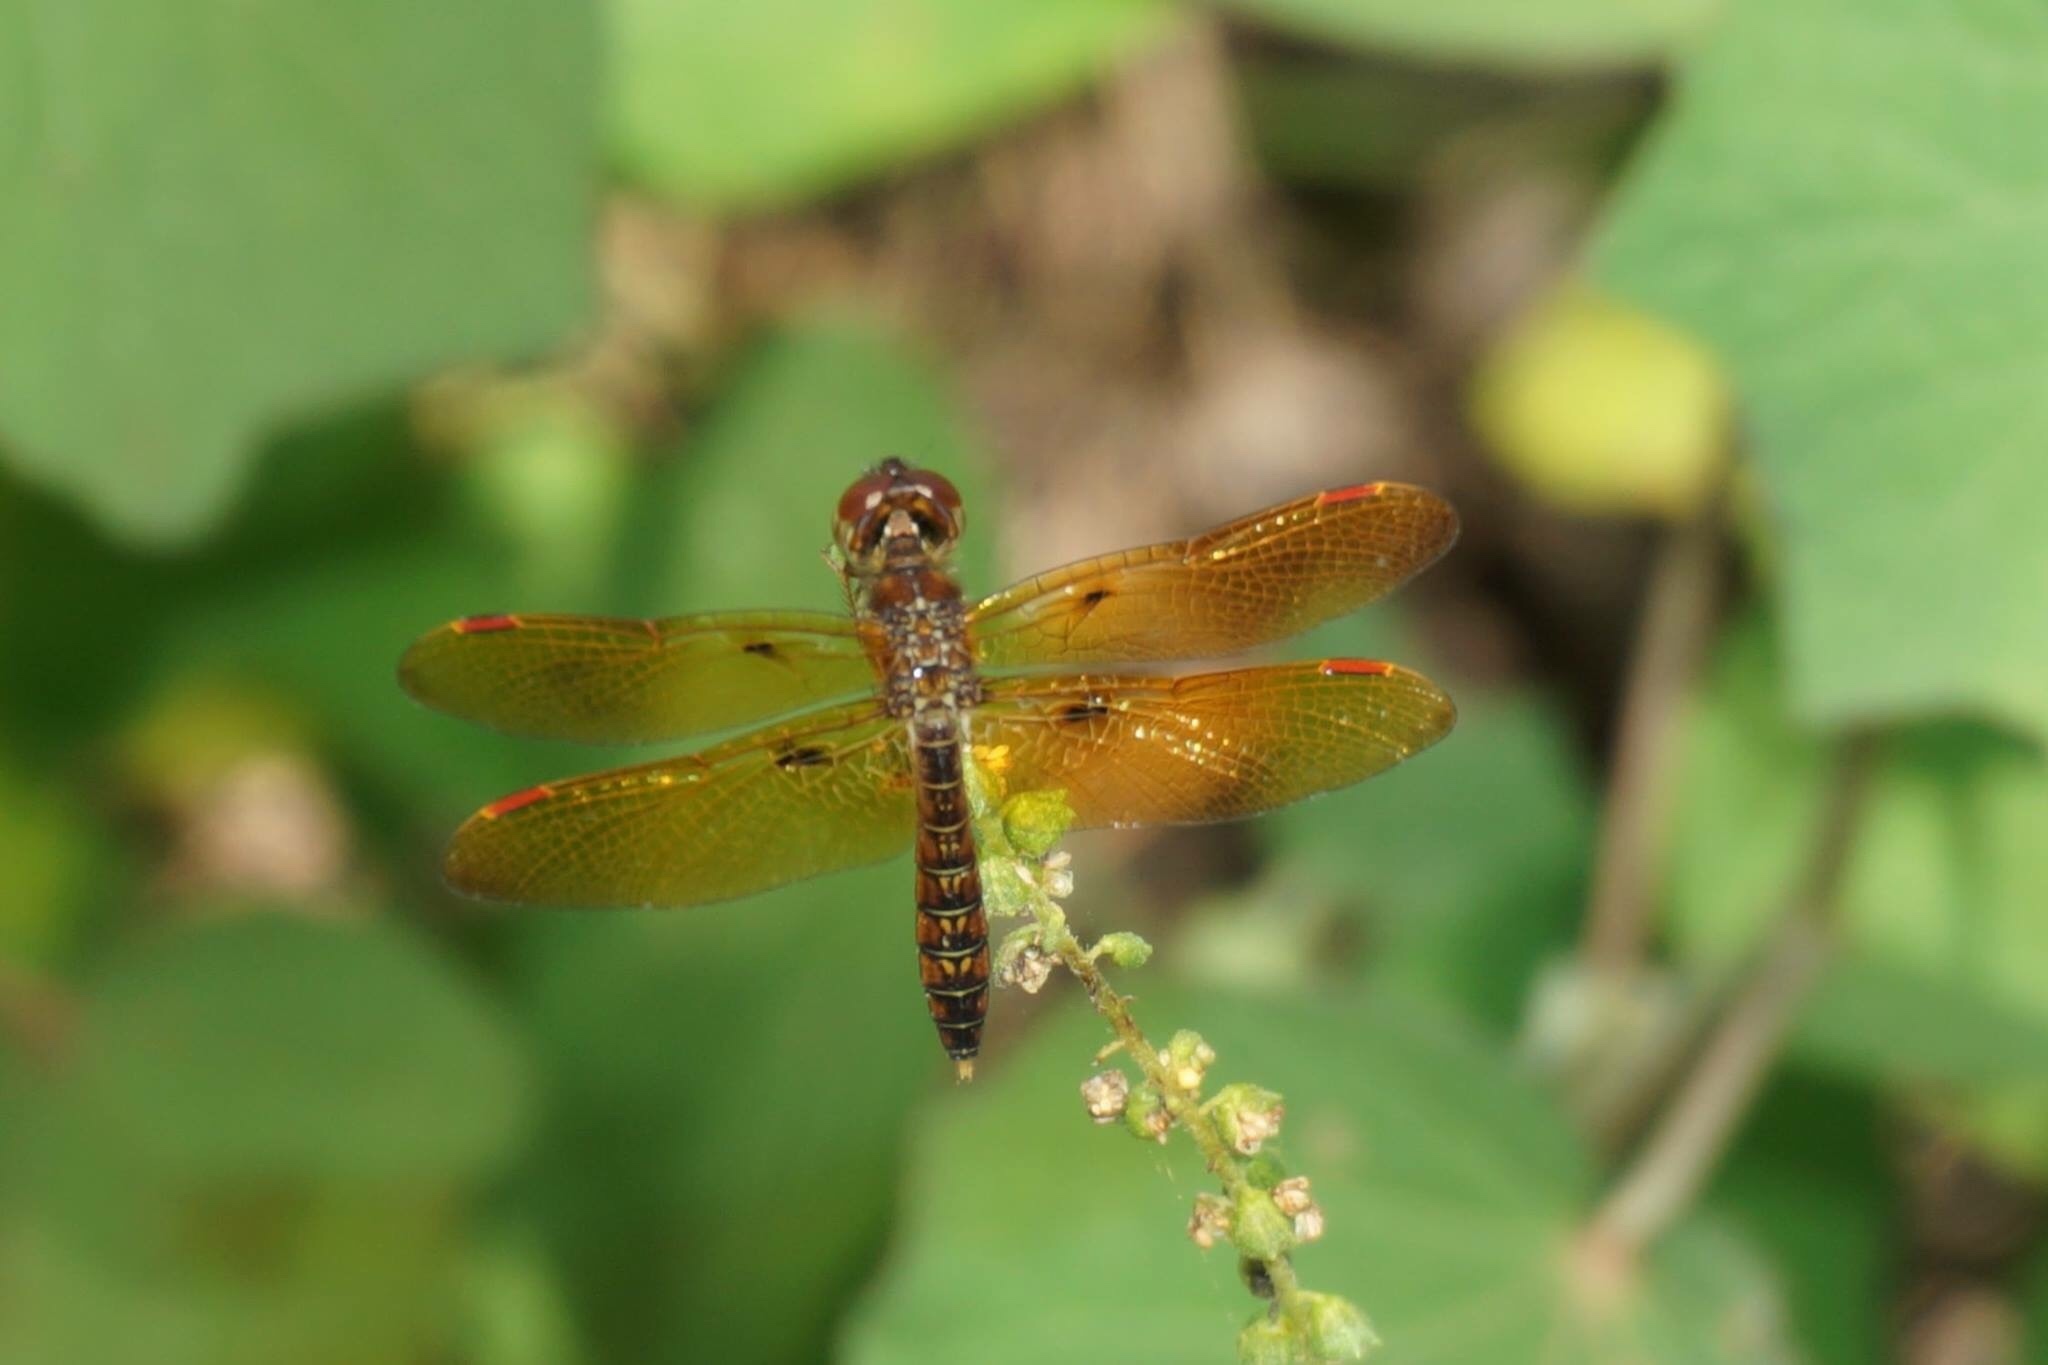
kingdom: Animalia
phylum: Arthropoda
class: Insecta
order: Odonata
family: Libellulidae
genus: Perithemis
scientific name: Perithemis tenera
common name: Eastern amberwing
